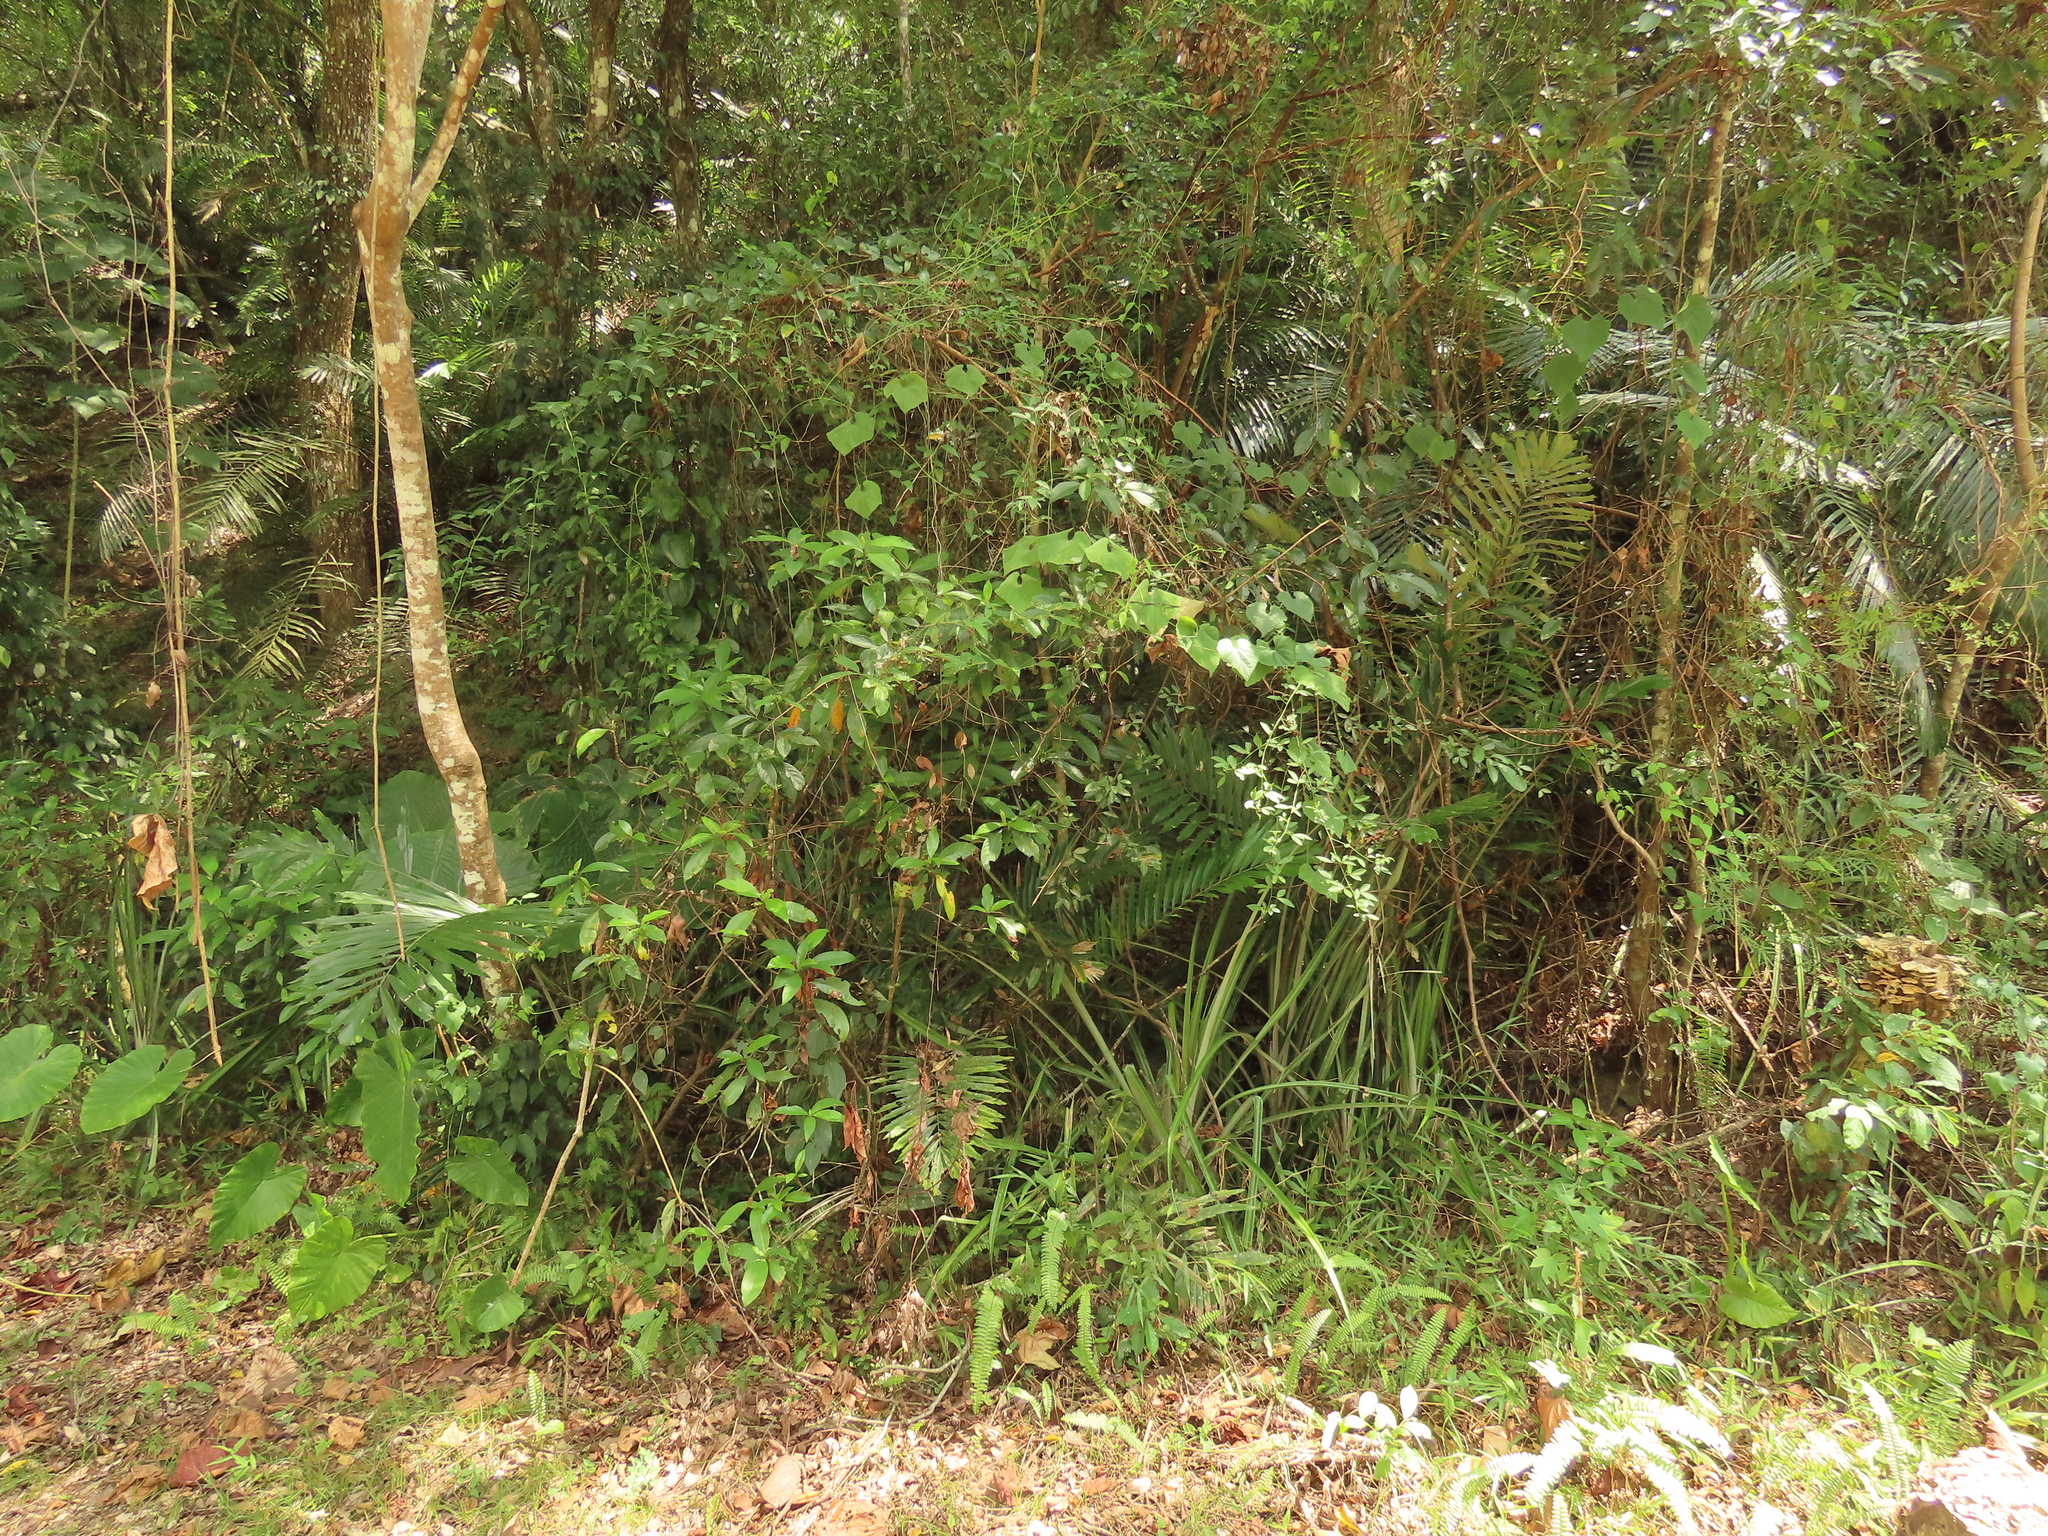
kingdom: Plantae
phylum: Tracheophyta
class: Liliopsida
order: Poales
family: Bromeliaceae
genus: Ananas
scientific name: Ananas comosus
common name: Pineapple
